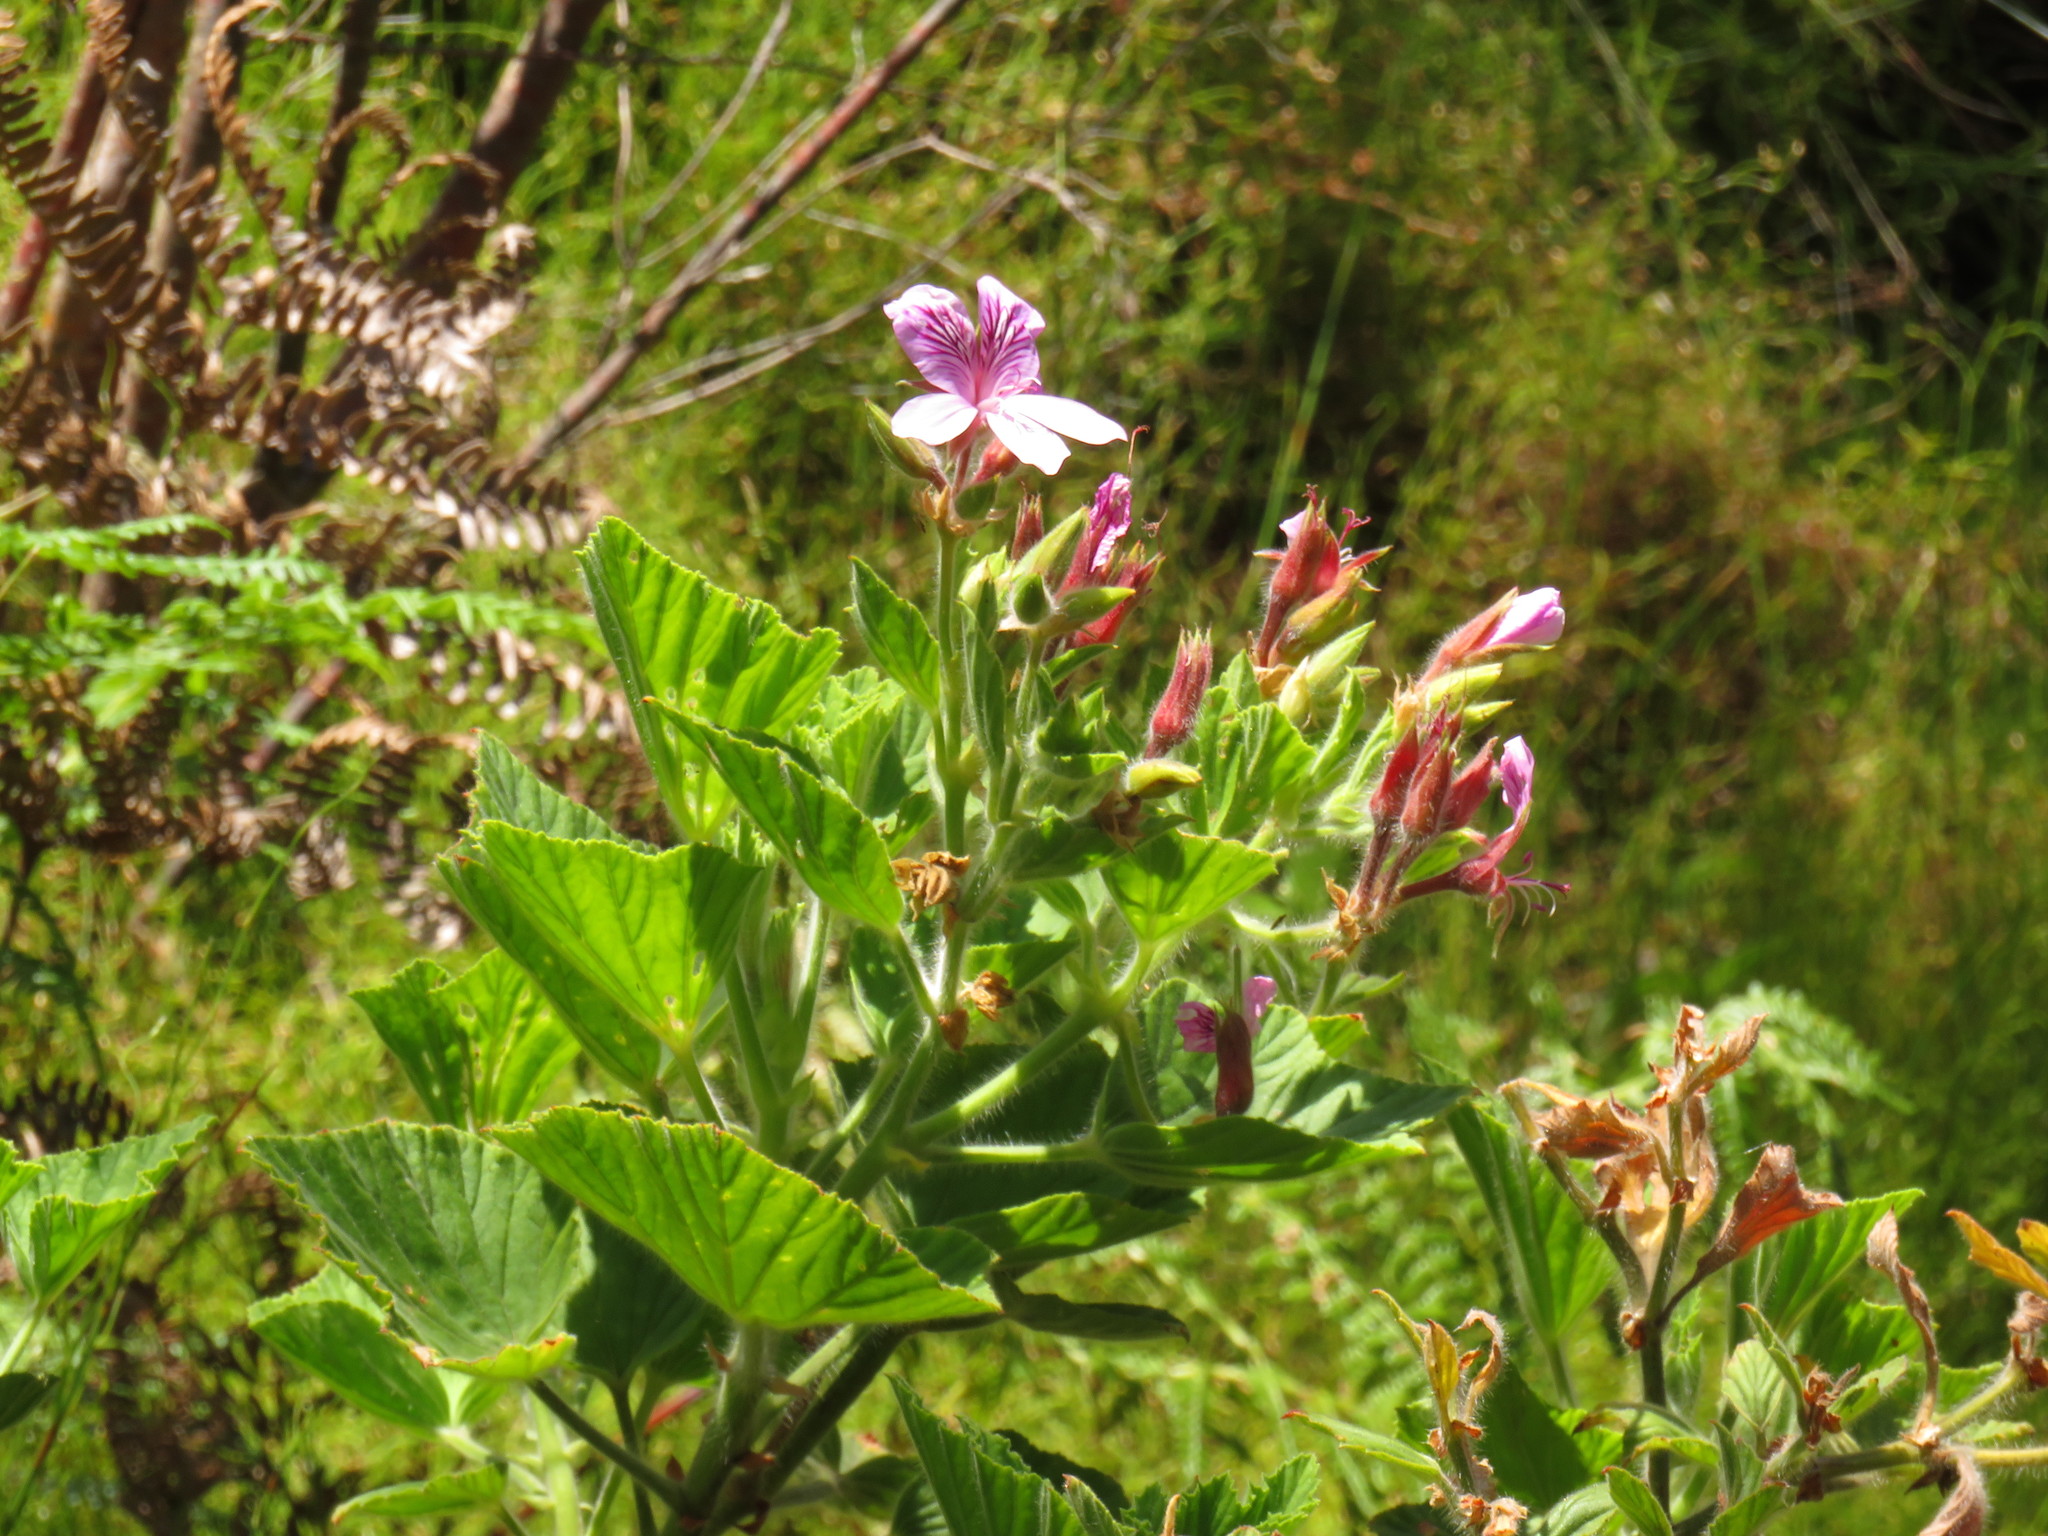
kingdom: Plantae
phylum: Tracheophyta
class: Magnoliopsida
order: Geraniales
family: Geraniaceae
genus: Pelargonium
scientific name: Pelargonium cucullatum
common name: Tree pelargonium
